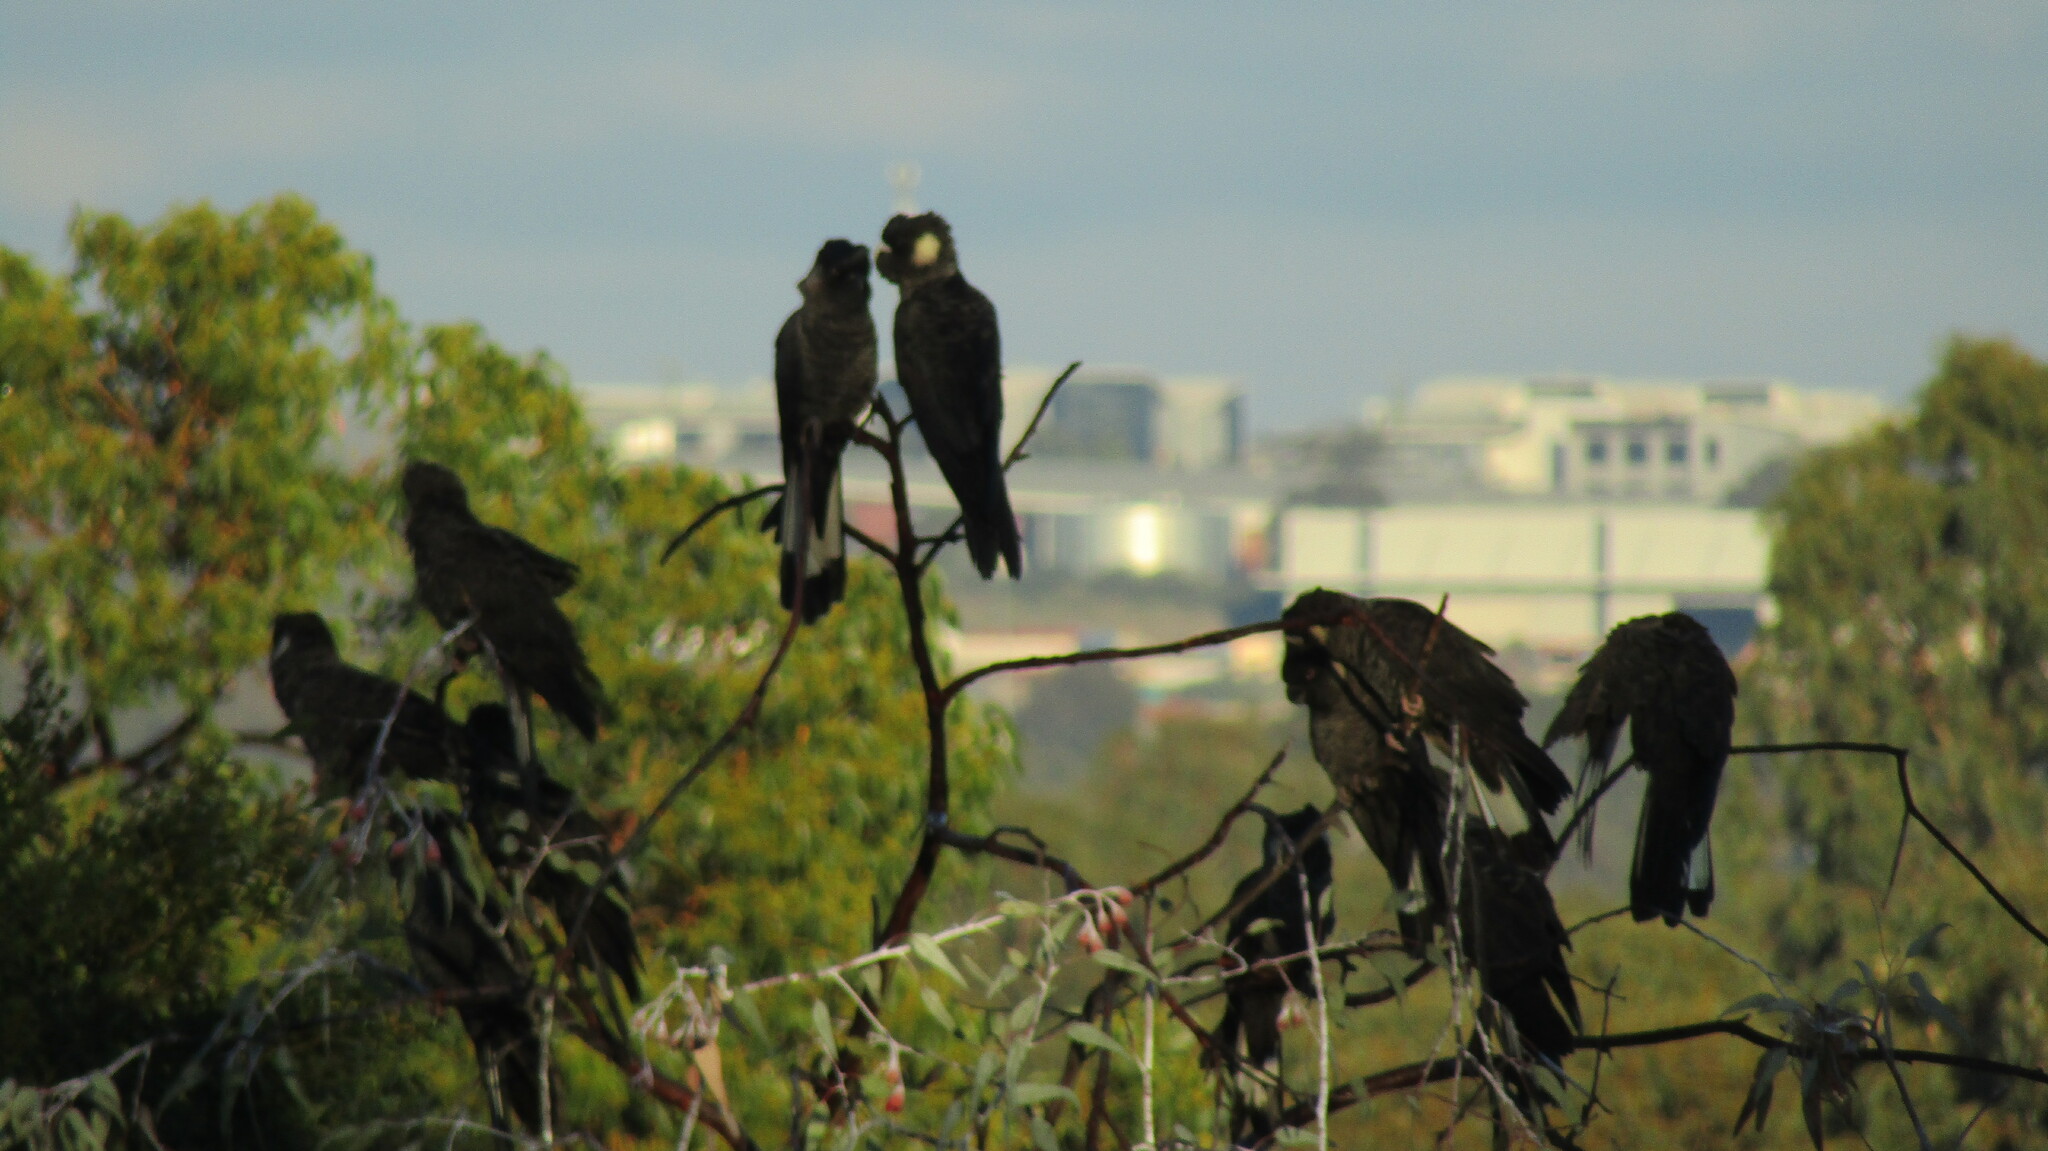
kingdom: Animalia
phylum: Chordata
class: Aves
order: Psittaciformes
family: Cacatuidae
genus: Zanda
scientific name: Zanda latirostris
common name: Short-billed black-cockatoo
